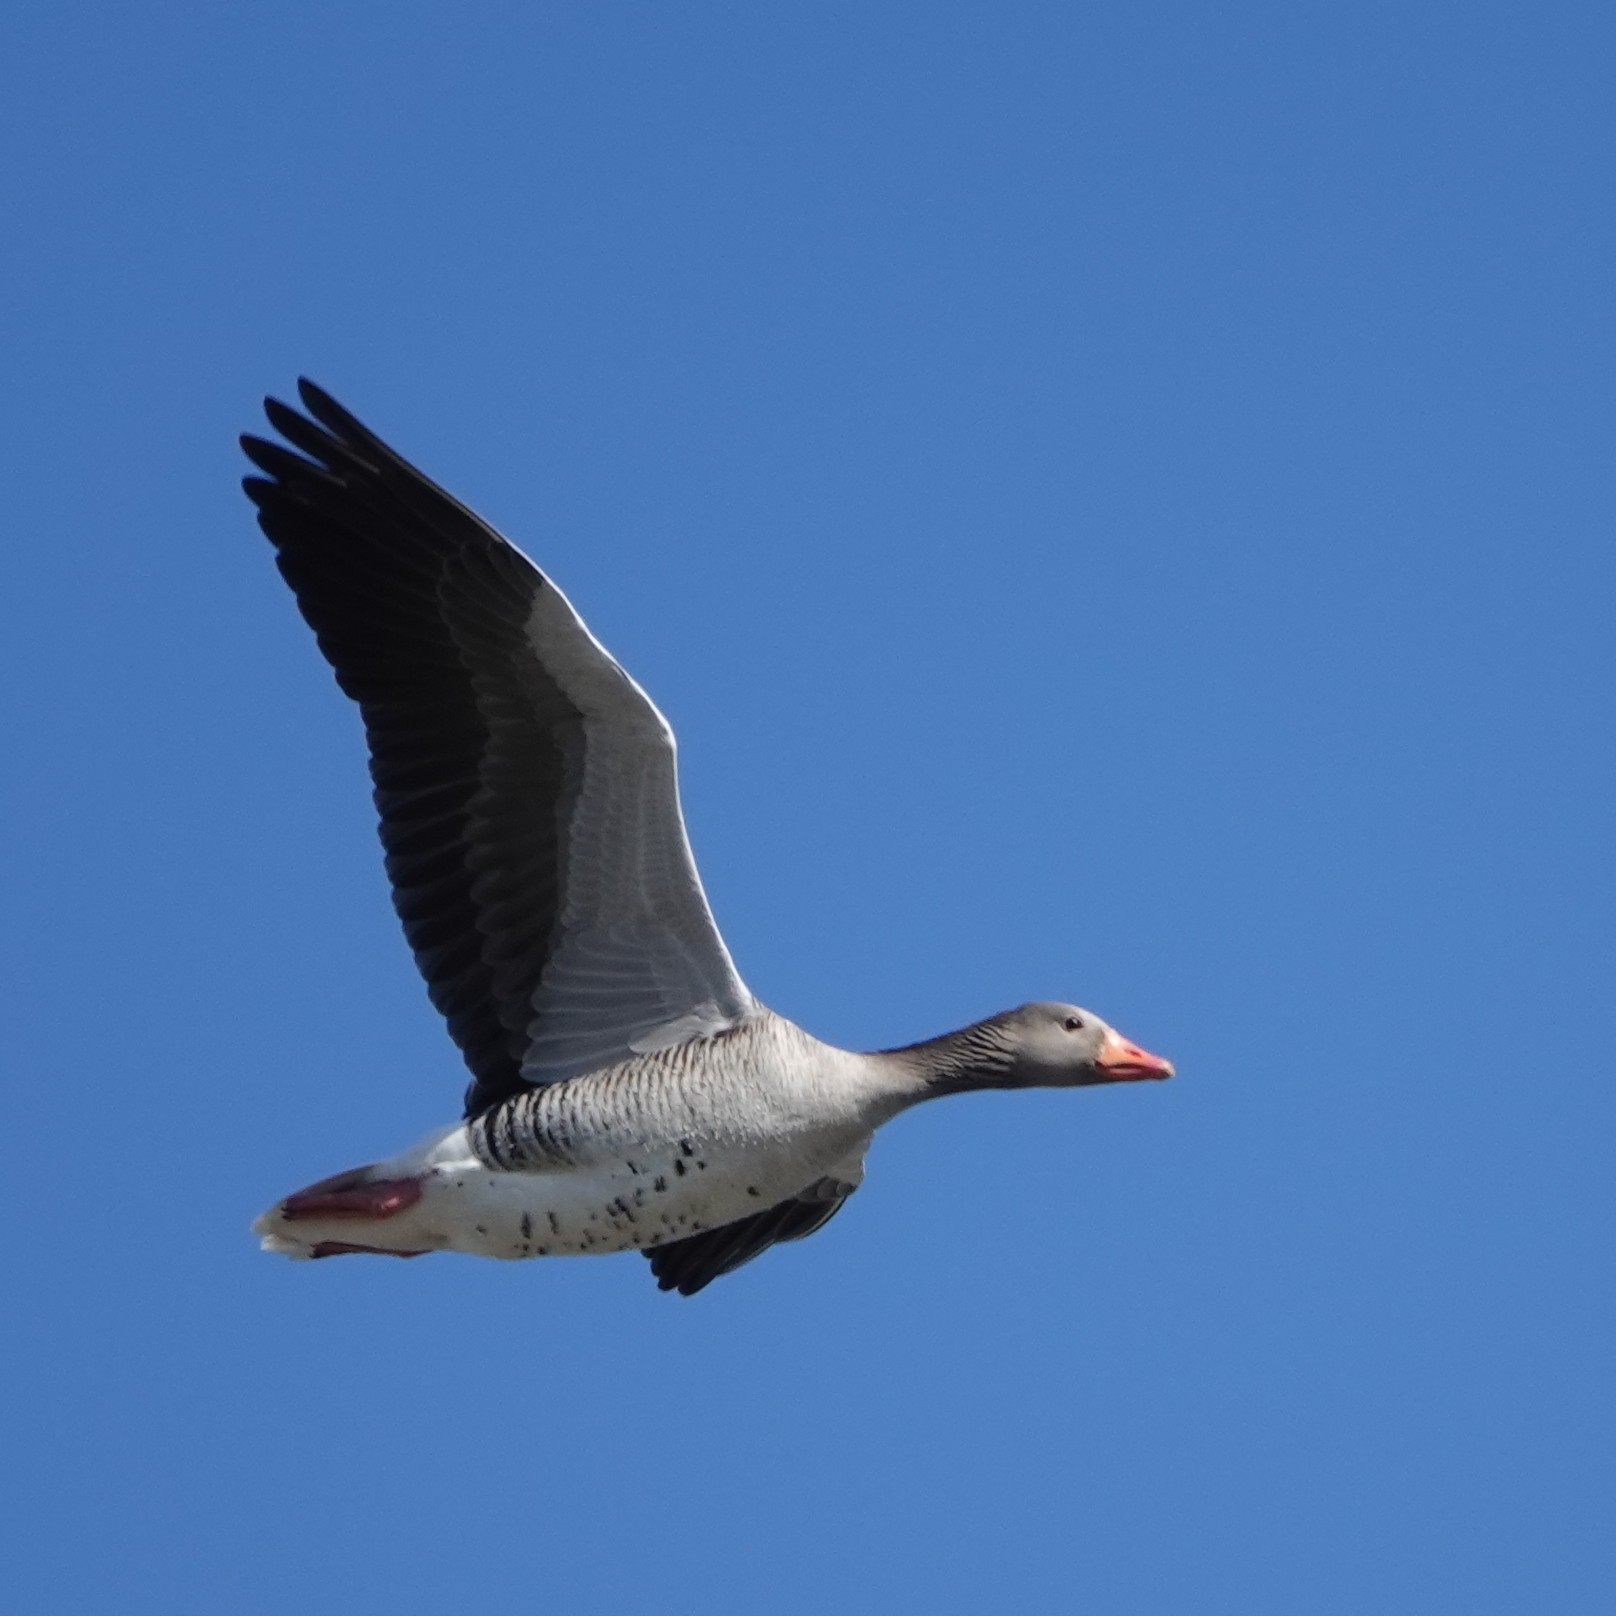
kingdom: Animalia
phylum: Chordata
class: Aves
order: Anseriformes
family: Anatidae
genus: Anser
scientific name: Anser anser
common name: Greylag goose
